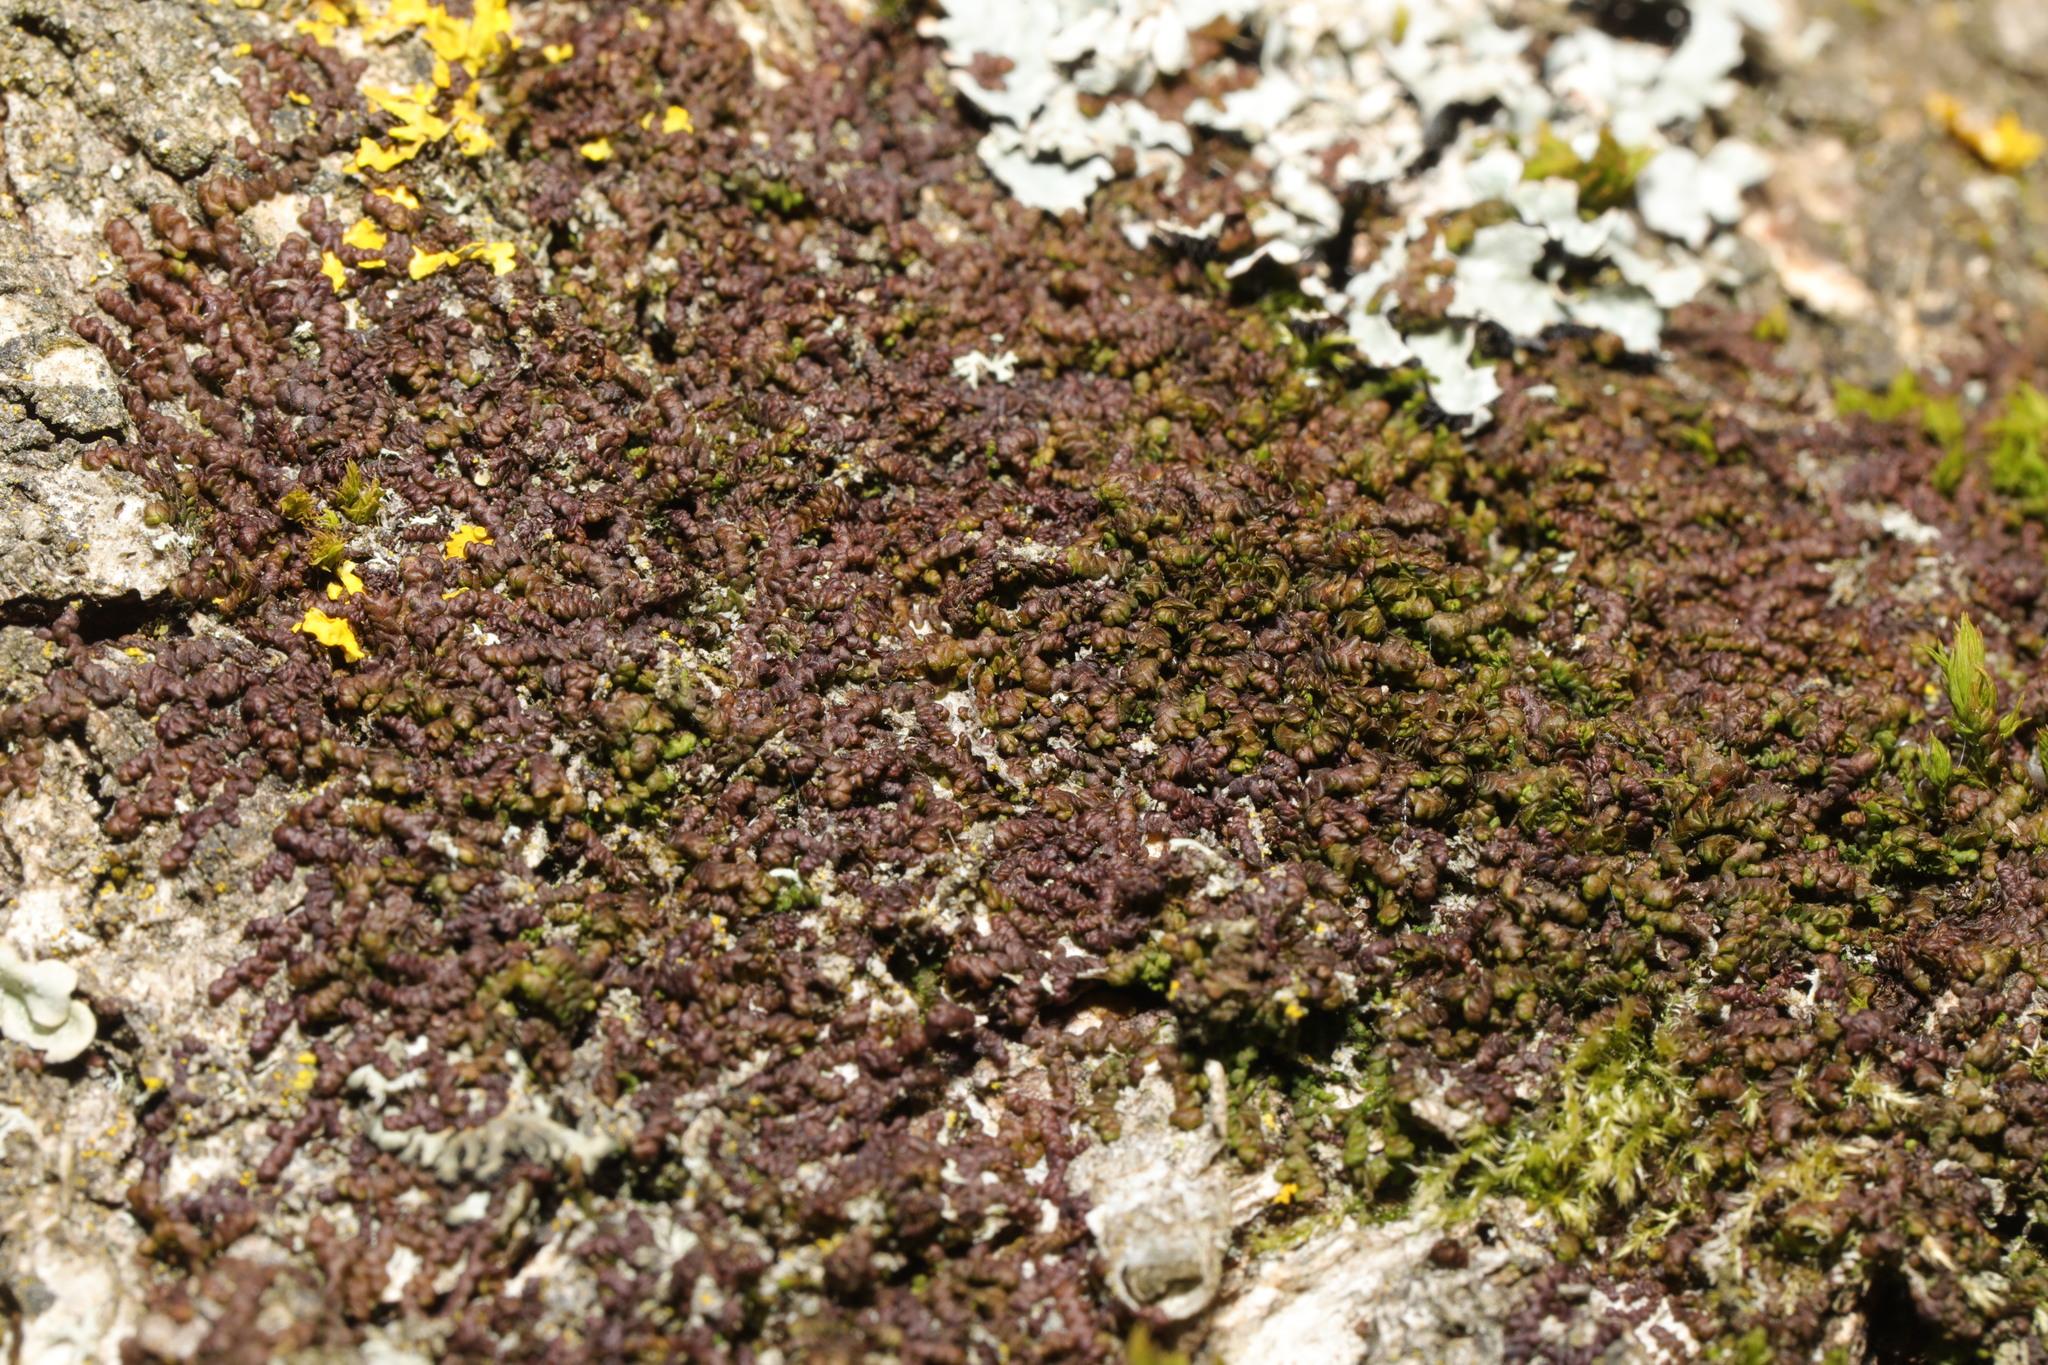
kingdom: Plantae
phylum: Marchantiophyta
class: Jungermanniopsida
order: Porellales
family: Frullaniaceae
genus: Frullania
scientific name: Frullania dilatata
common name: Dilated scalewort
